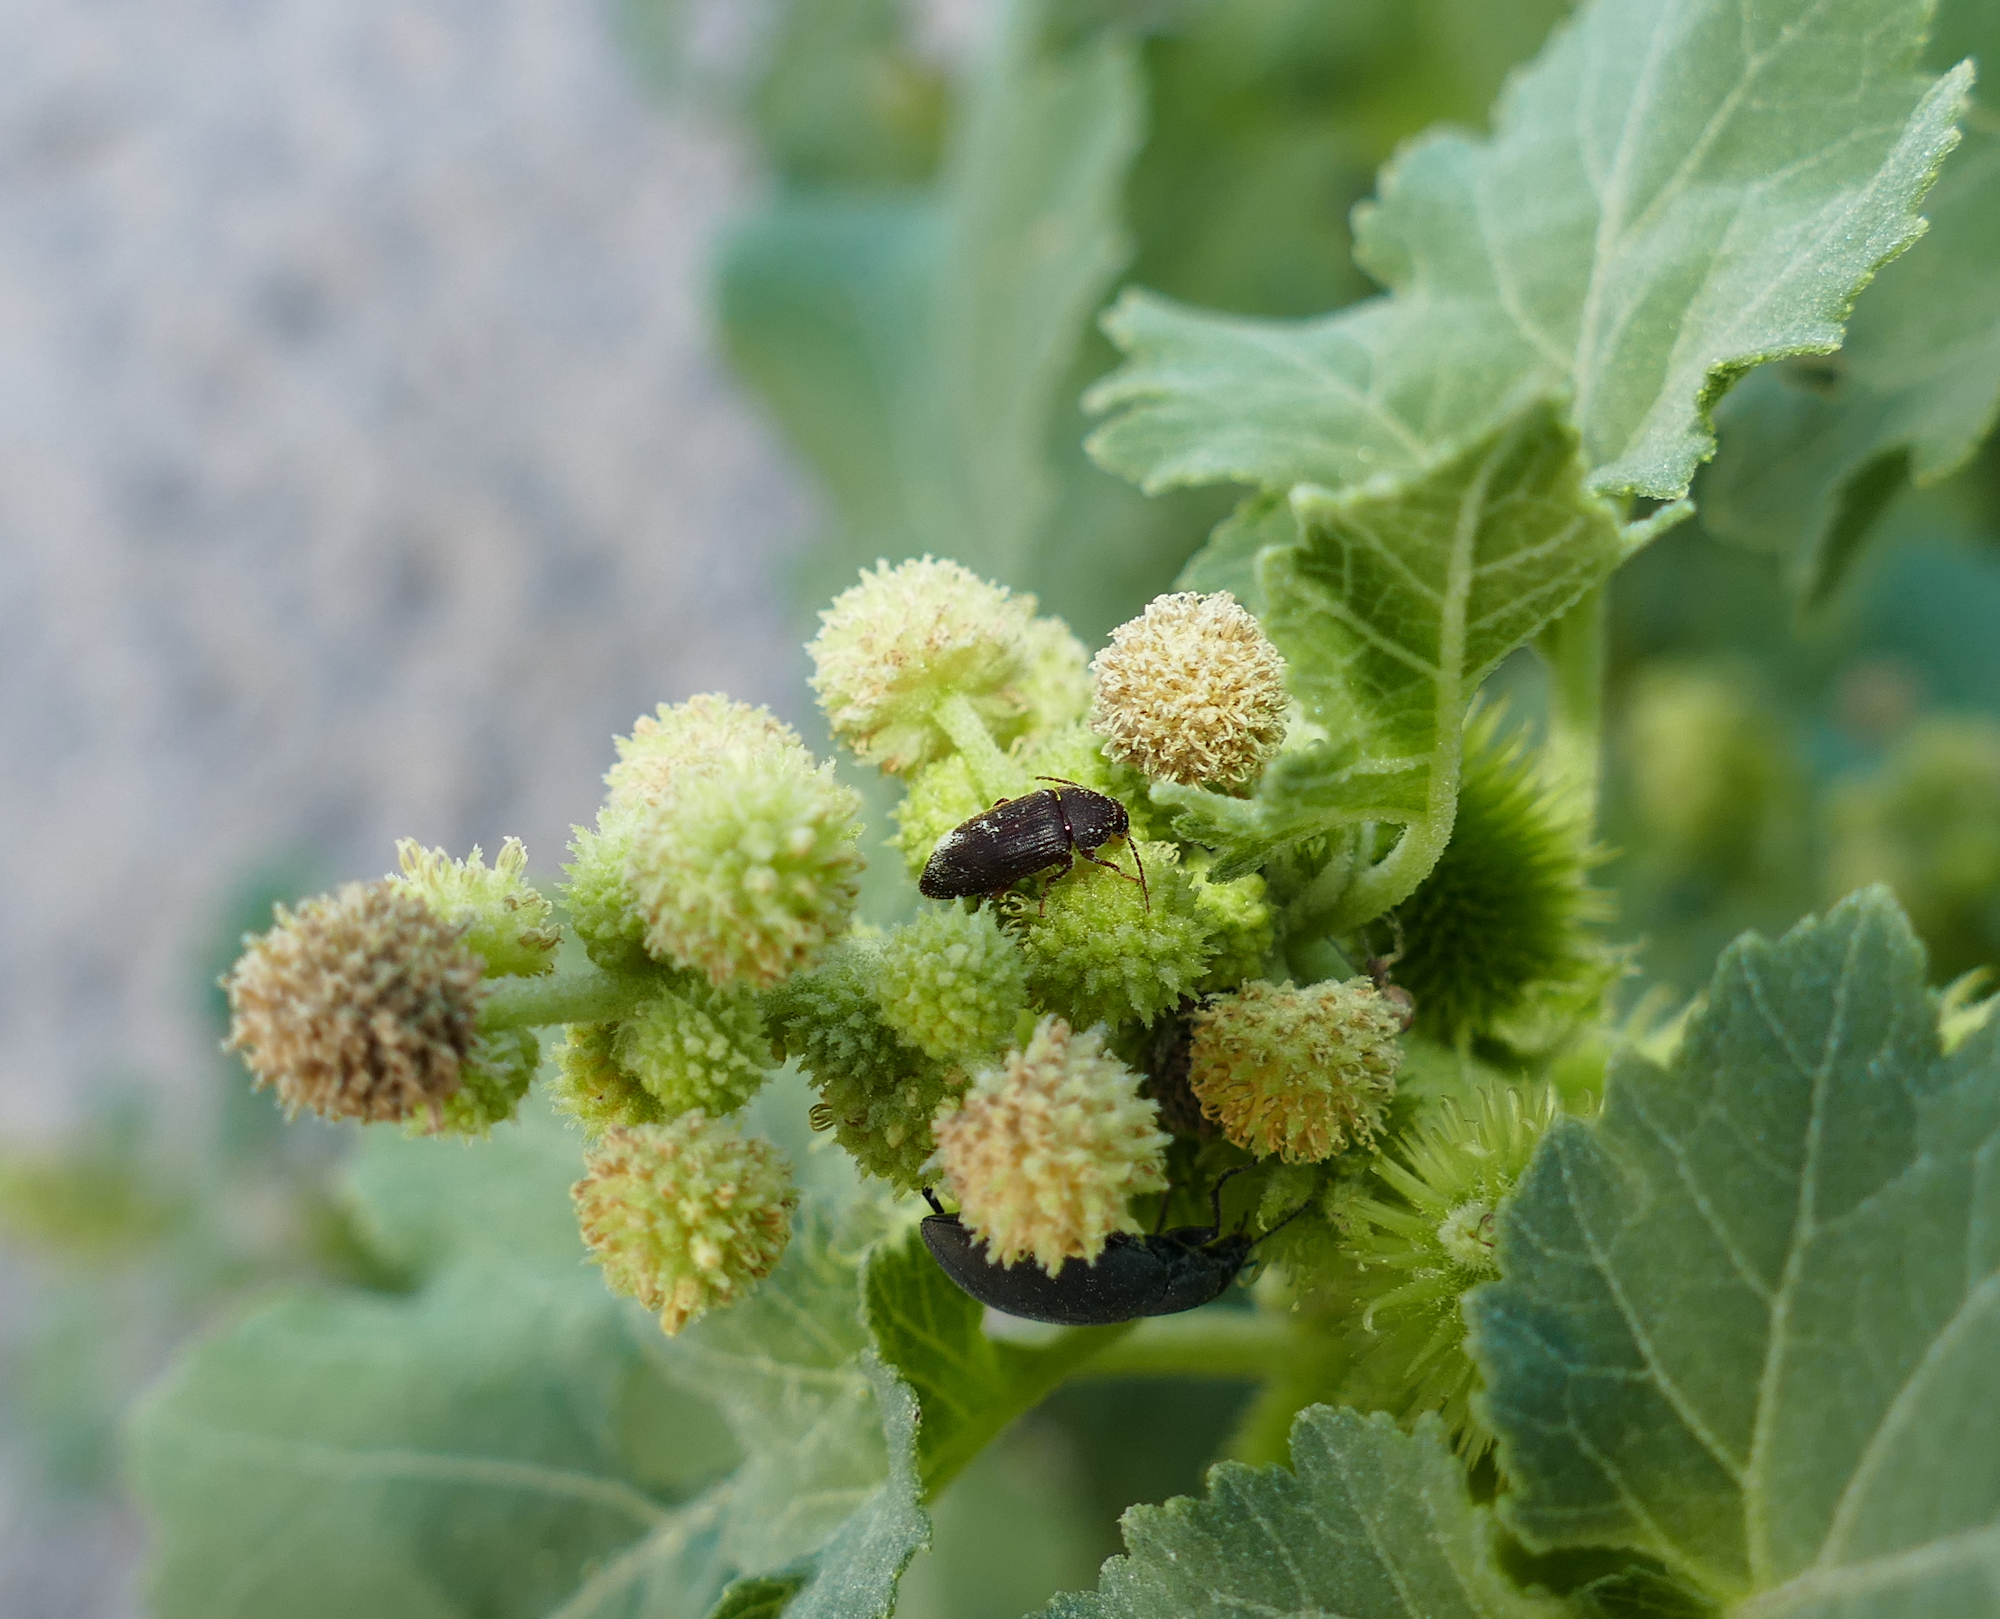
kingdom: Plantae
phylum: Tracheophyta
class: Magnoliopsida
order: Asterales
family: Asteraceae
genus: Xanthium
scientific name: Xanthium strumarium
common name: Rough cocklebur
